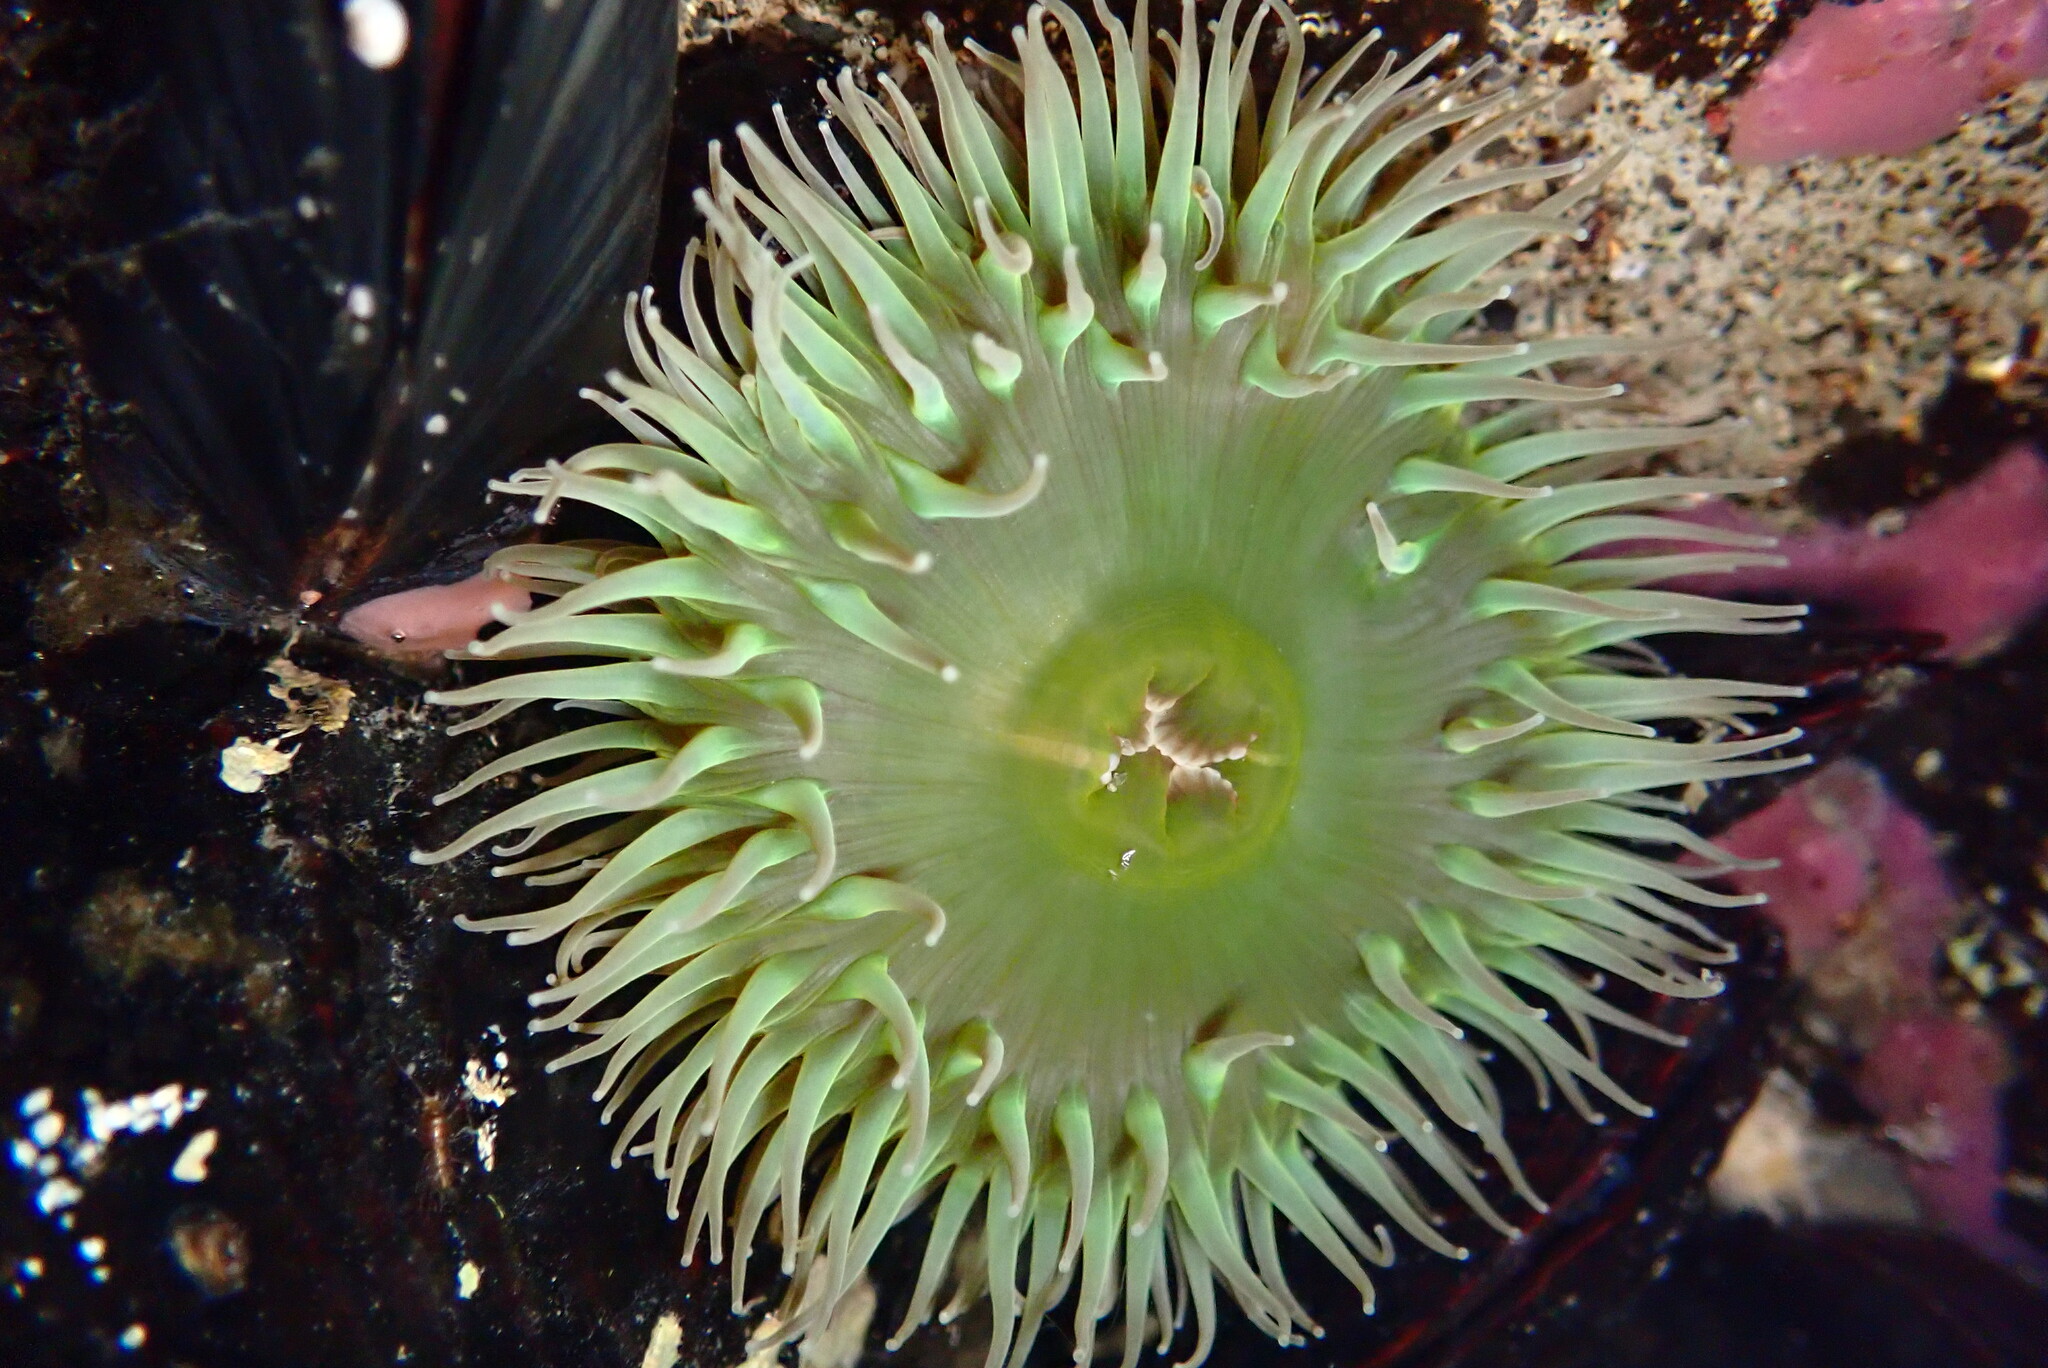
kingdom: Animalia
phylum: Cnidaria
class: Anthozoa
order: Actiniaria
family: Actiniidae
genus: Anthopleura
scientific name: Anthopleura xanthogrammica
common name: Giant green anemone
